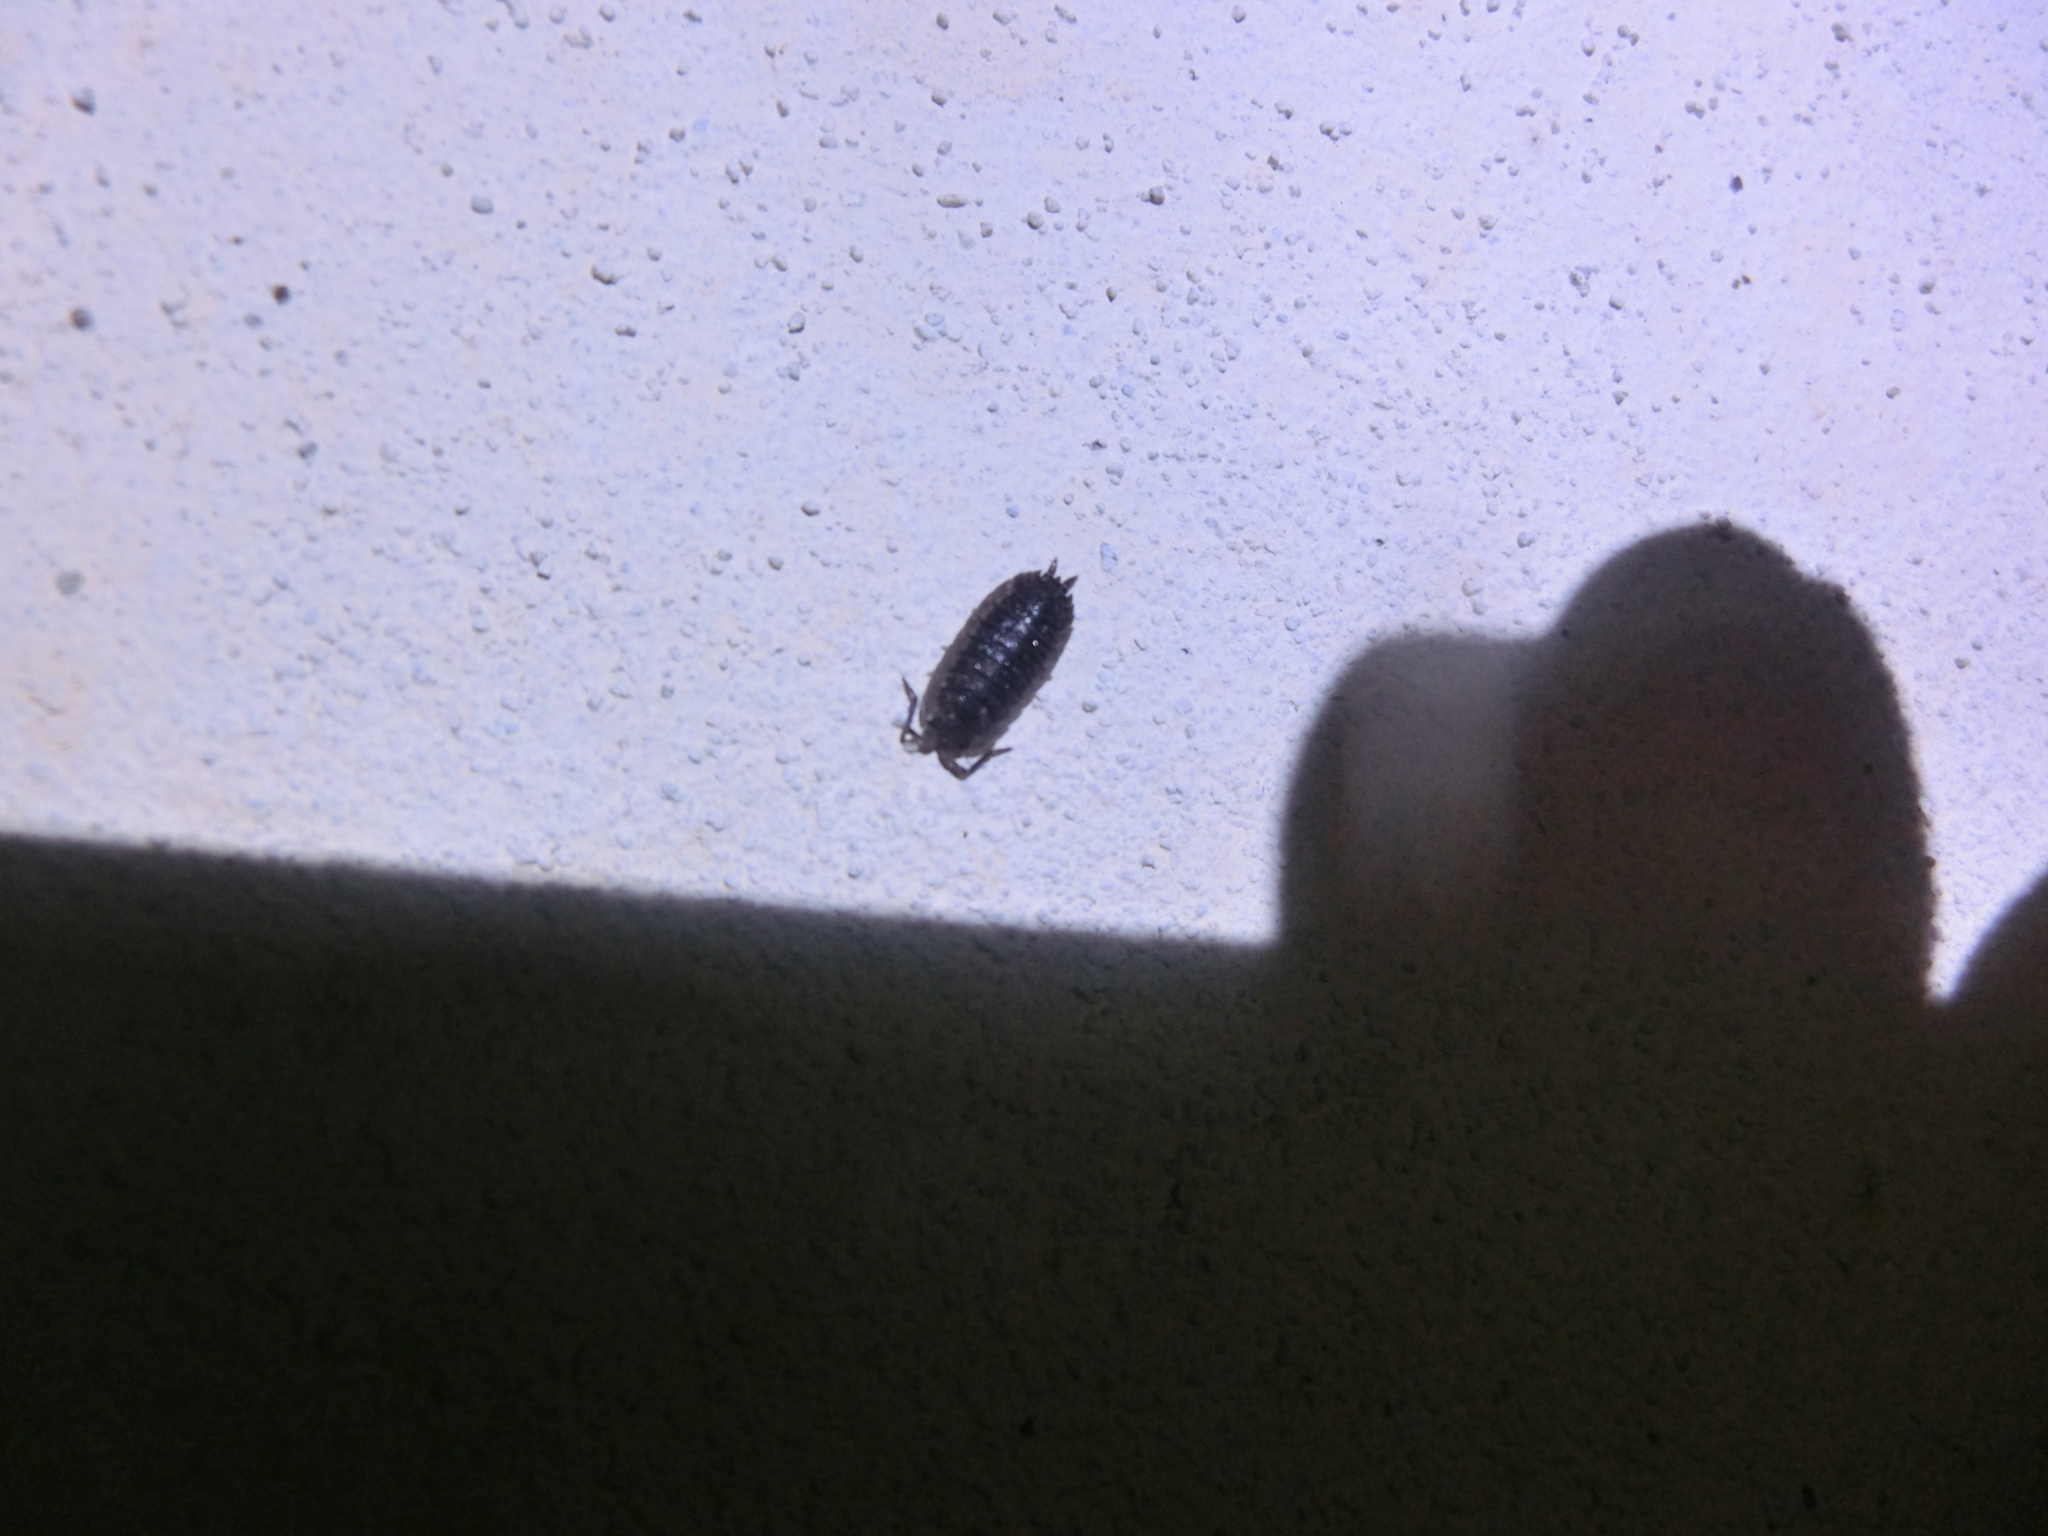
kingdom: Animalia
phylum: Arthropoda
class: Malacostraca
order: Isopoda
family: Porcellionidae
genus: Porcellio
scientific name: Porcellio scaber
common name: Common rough woodlouse
